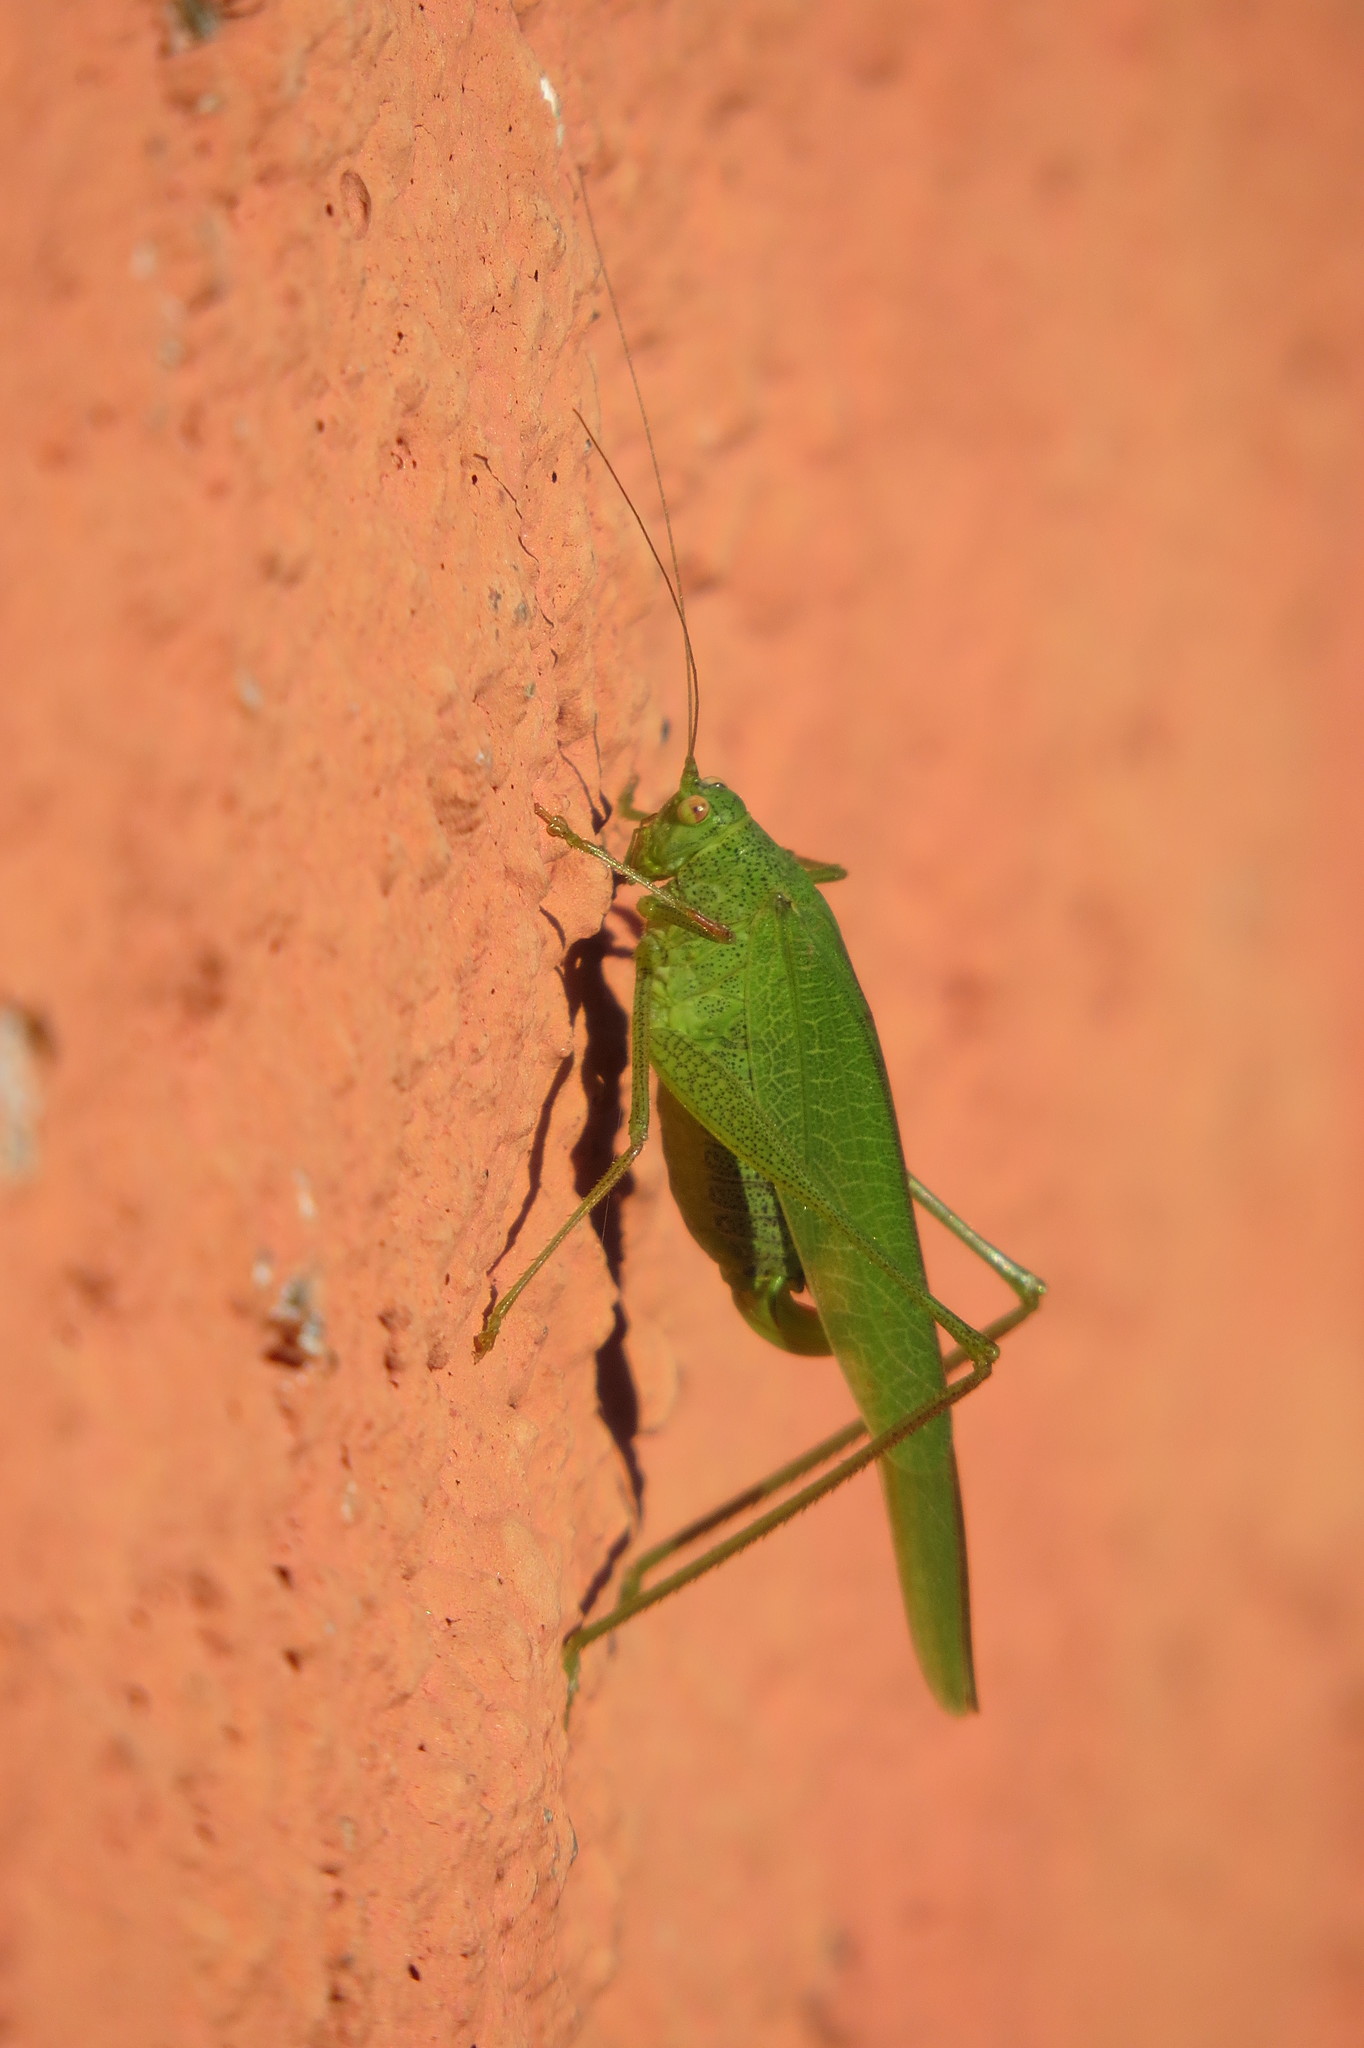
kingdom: Animalia
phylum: Arthropoda
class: Insecta
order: Orthoptera
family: Tettigoniidae
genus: Phaneroptera
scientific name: Phaneroptera nana
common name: Southern sickle bush-cricket
